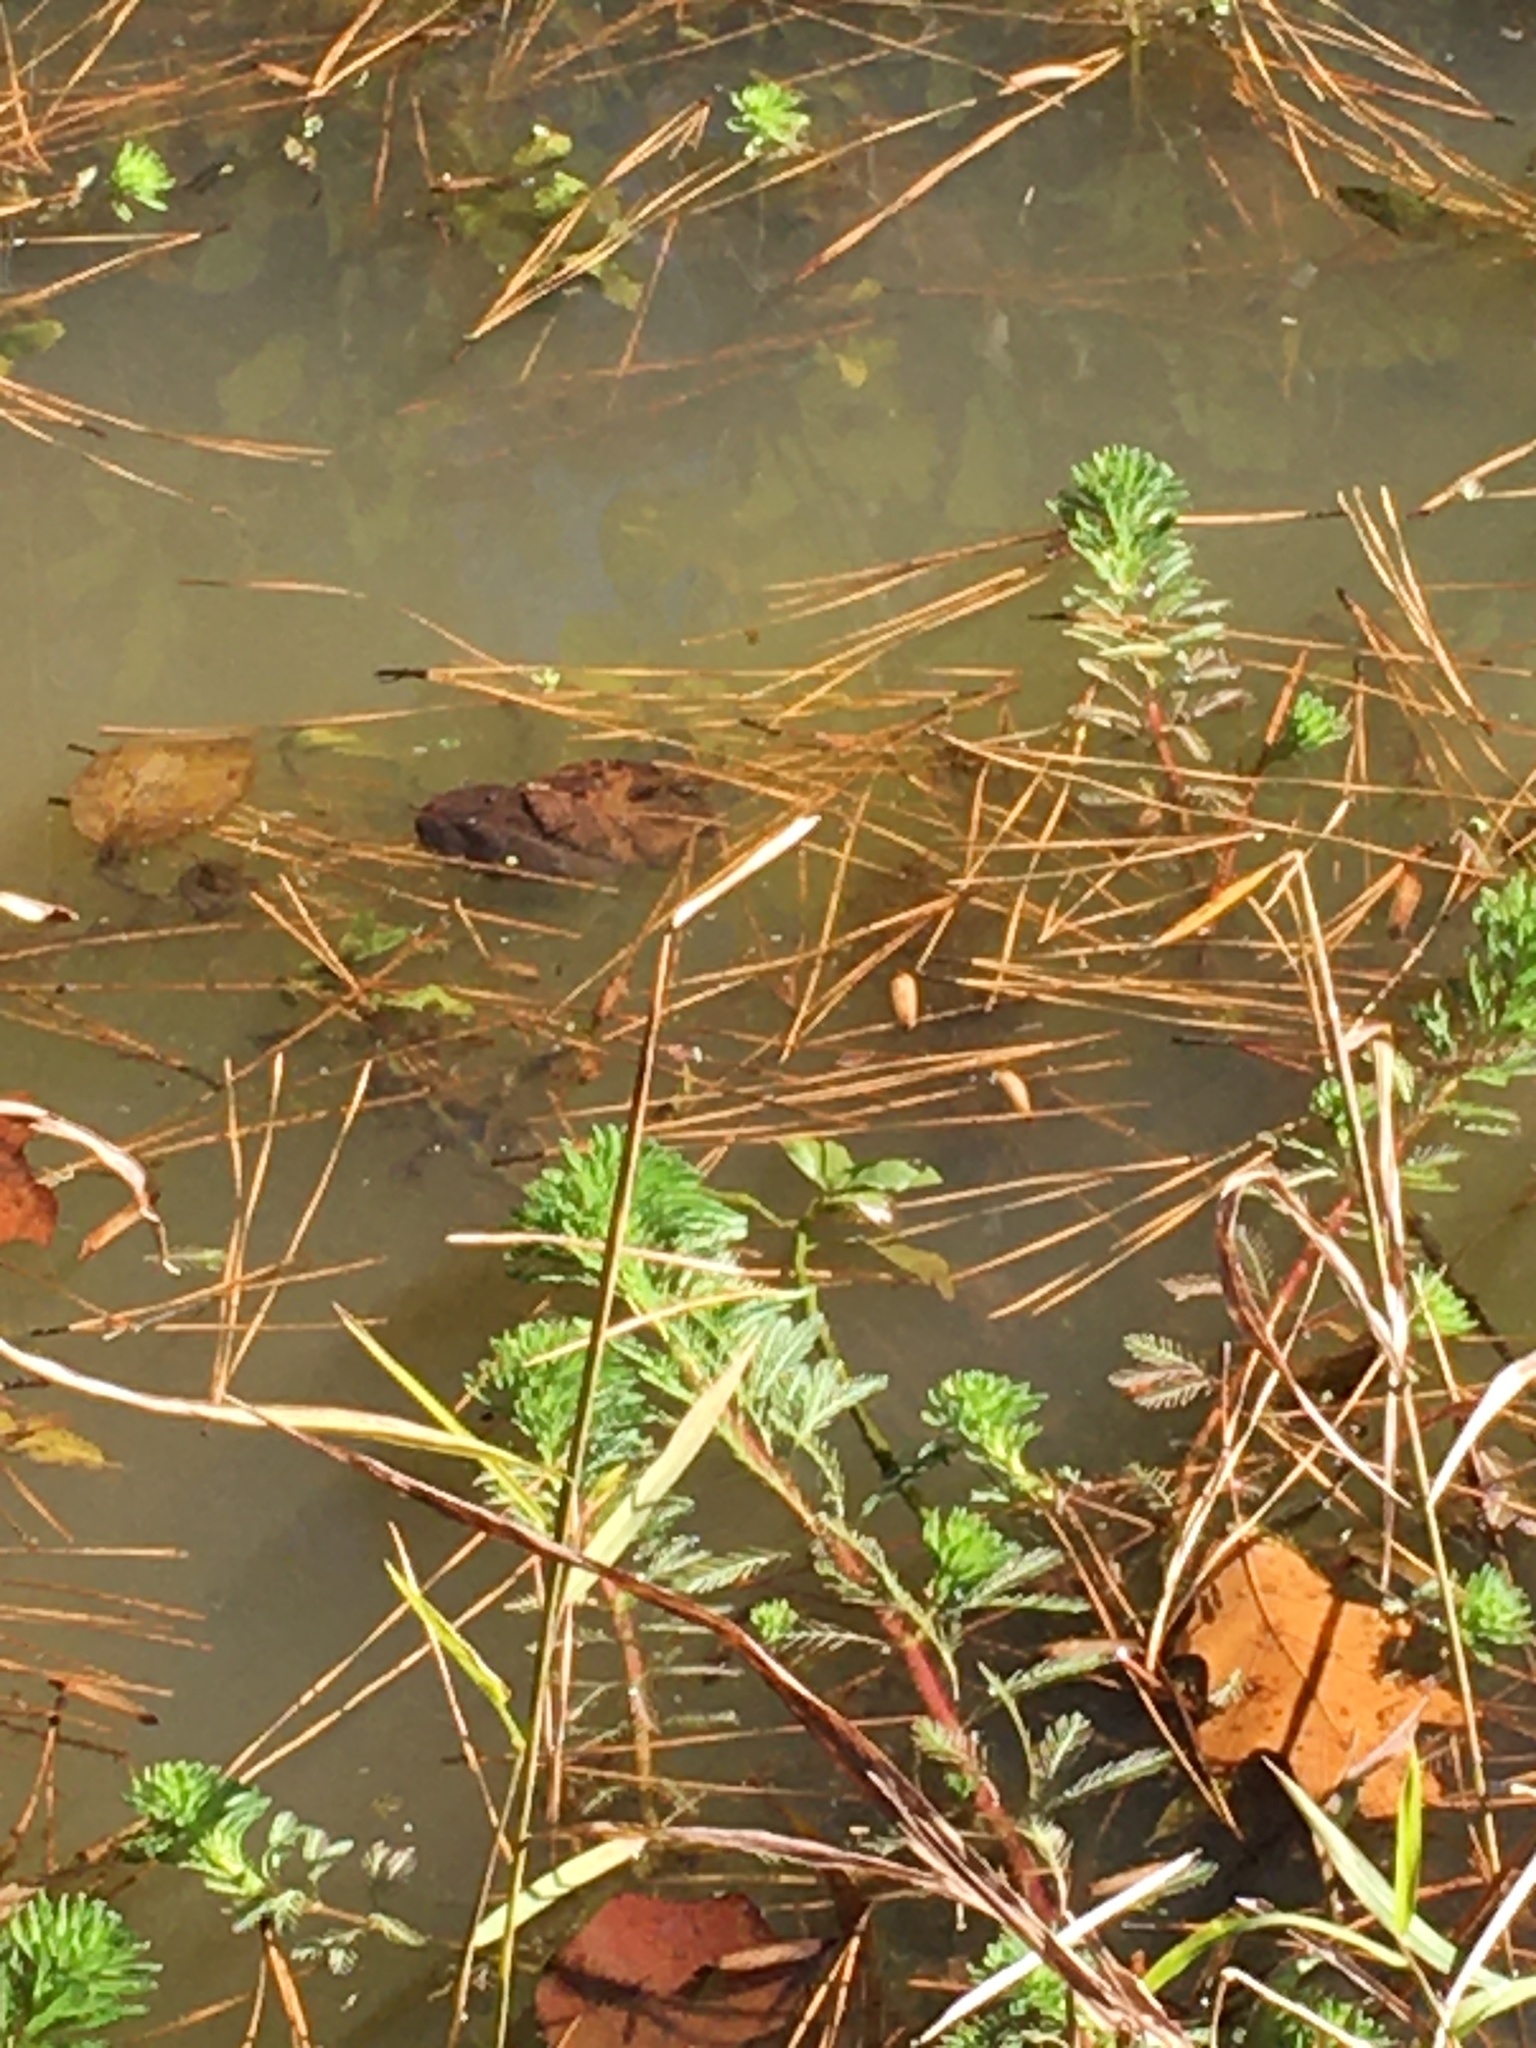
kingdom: Plantae
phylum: Tracheophyta
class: Magnoliopsida
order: Saxifragales
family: Haloragaceae
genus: Myriophyllum
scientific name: Myriophyllum aquaticum
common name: Parrot's feather
